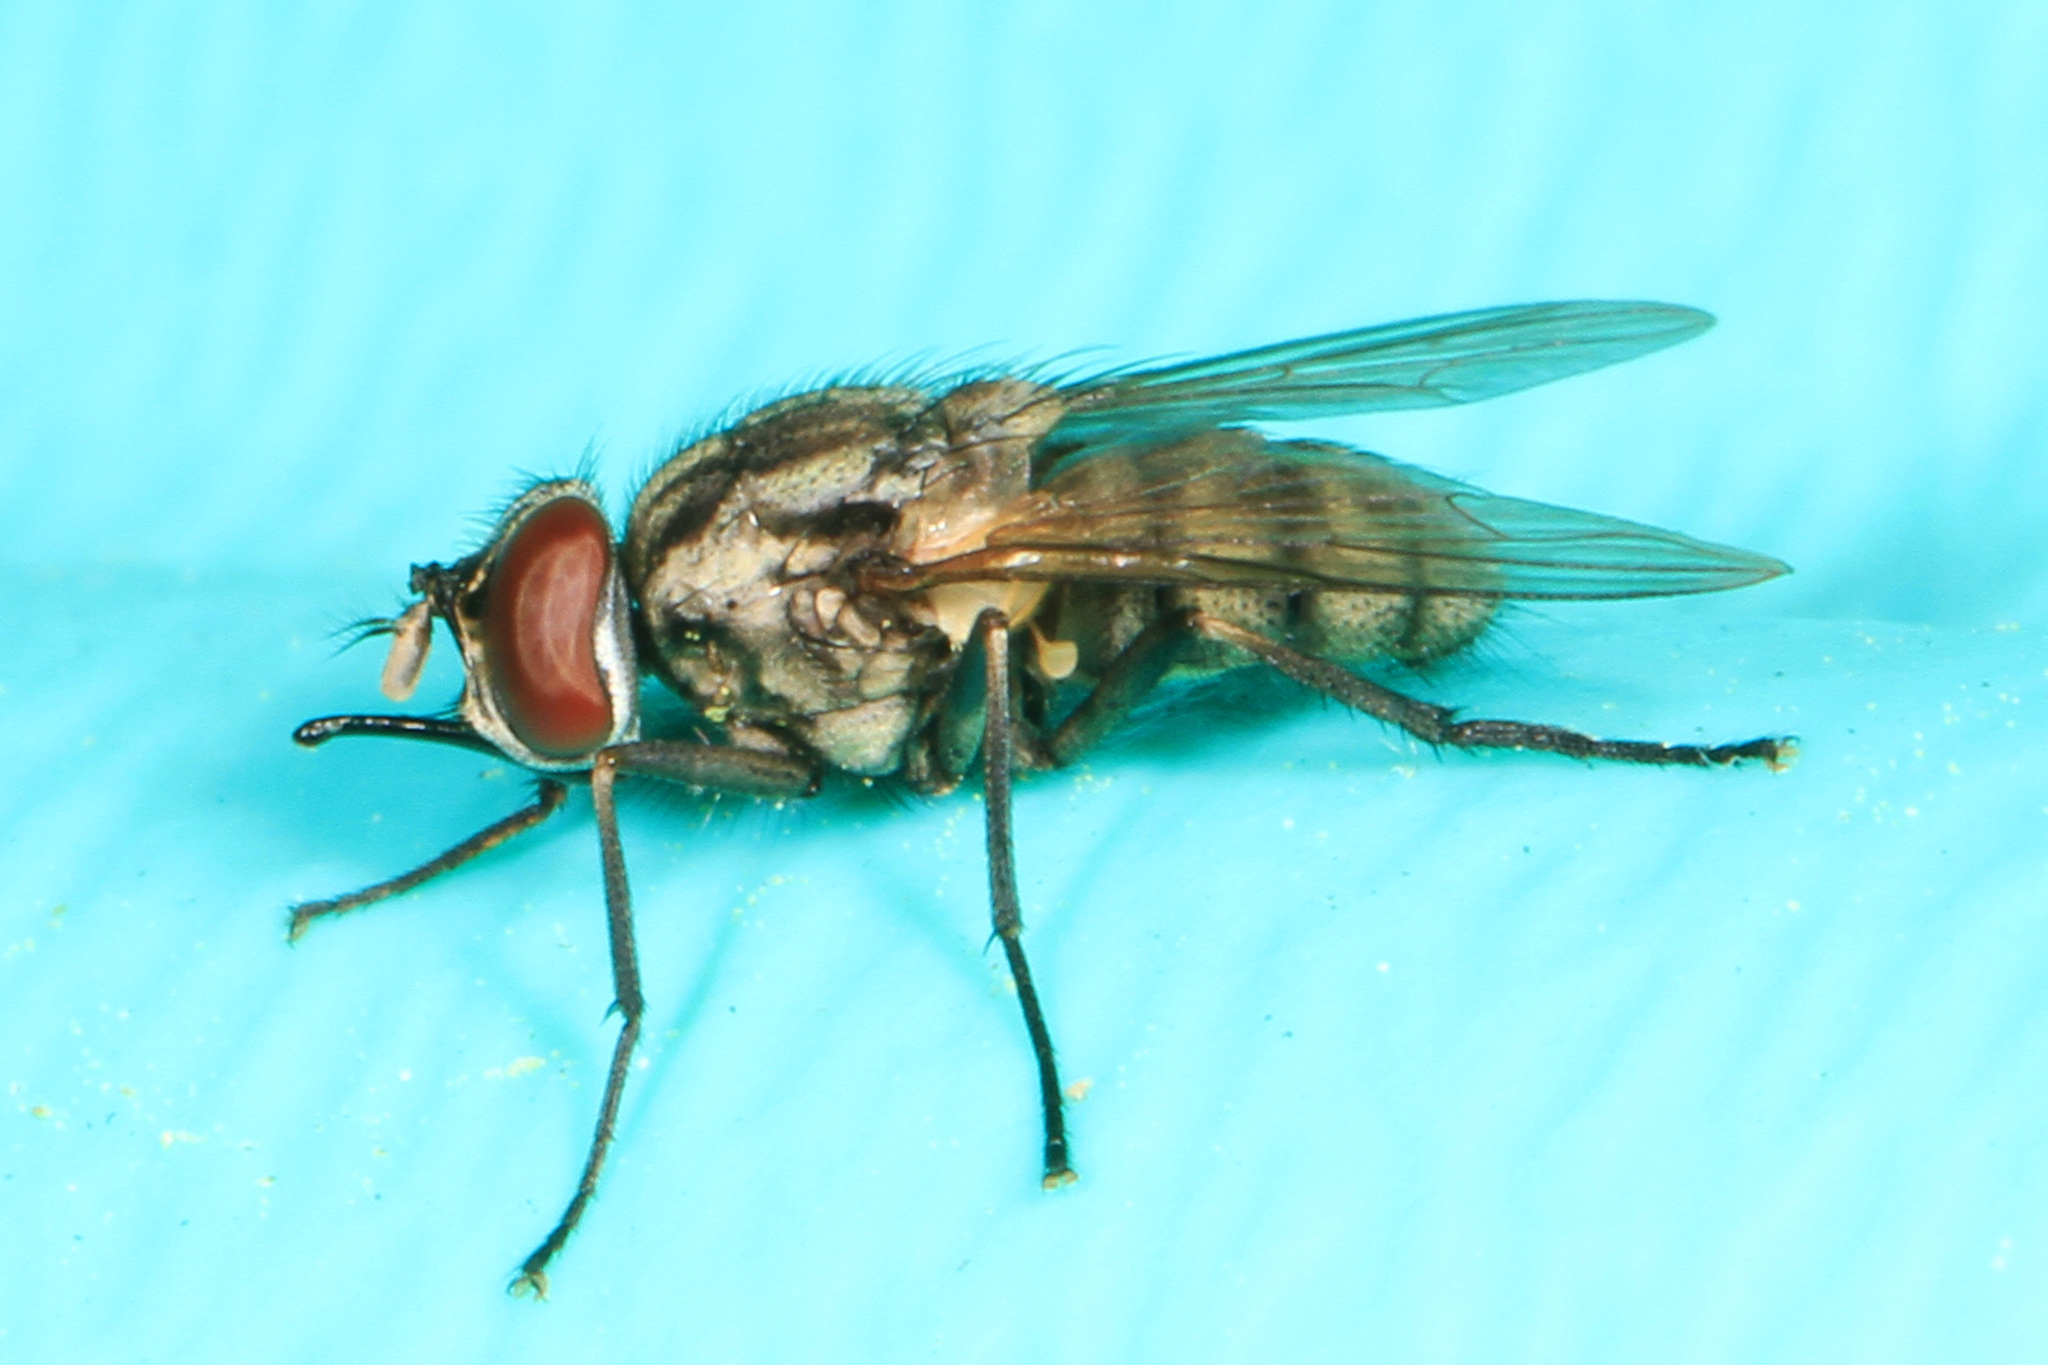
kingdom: Animalia
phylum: Arthropoda
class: Insecta
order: Diptera
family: Muscidae
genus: Stomoxys
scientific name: Stomoxys calcitrans
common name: Stable fly
